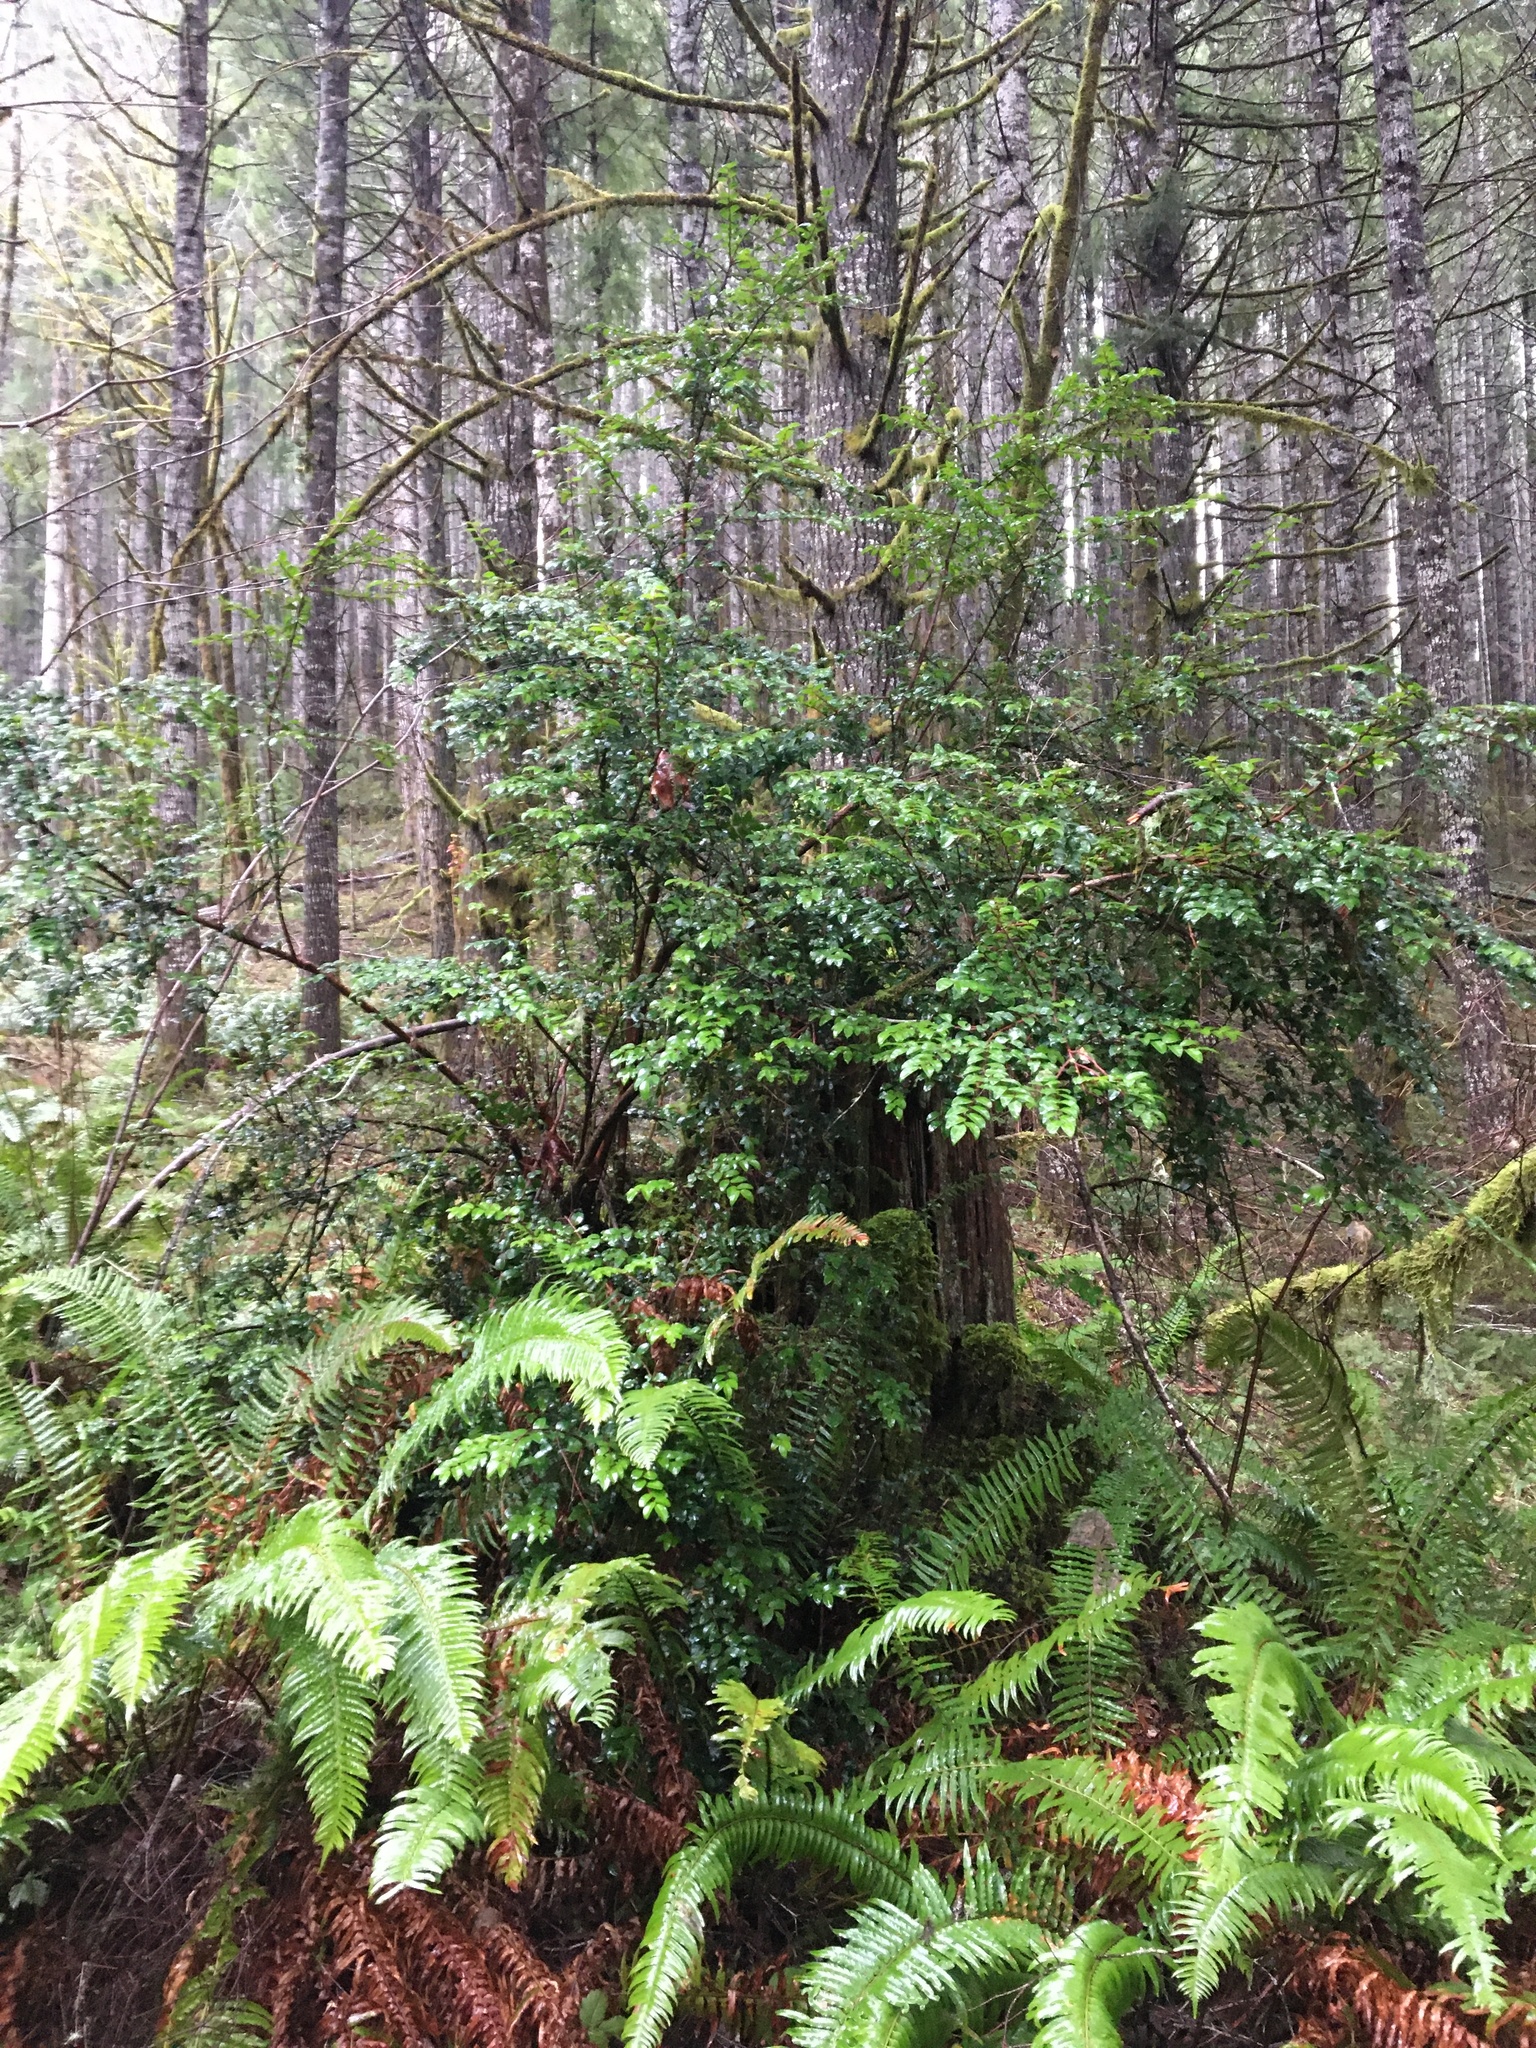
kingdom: Plantae
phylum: Tracheophyta
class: Magnoliopsida
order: Ericales
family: Ericaceae
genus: Vaccinium
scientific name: Vaccinium ovatum
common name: California-huckleberry
